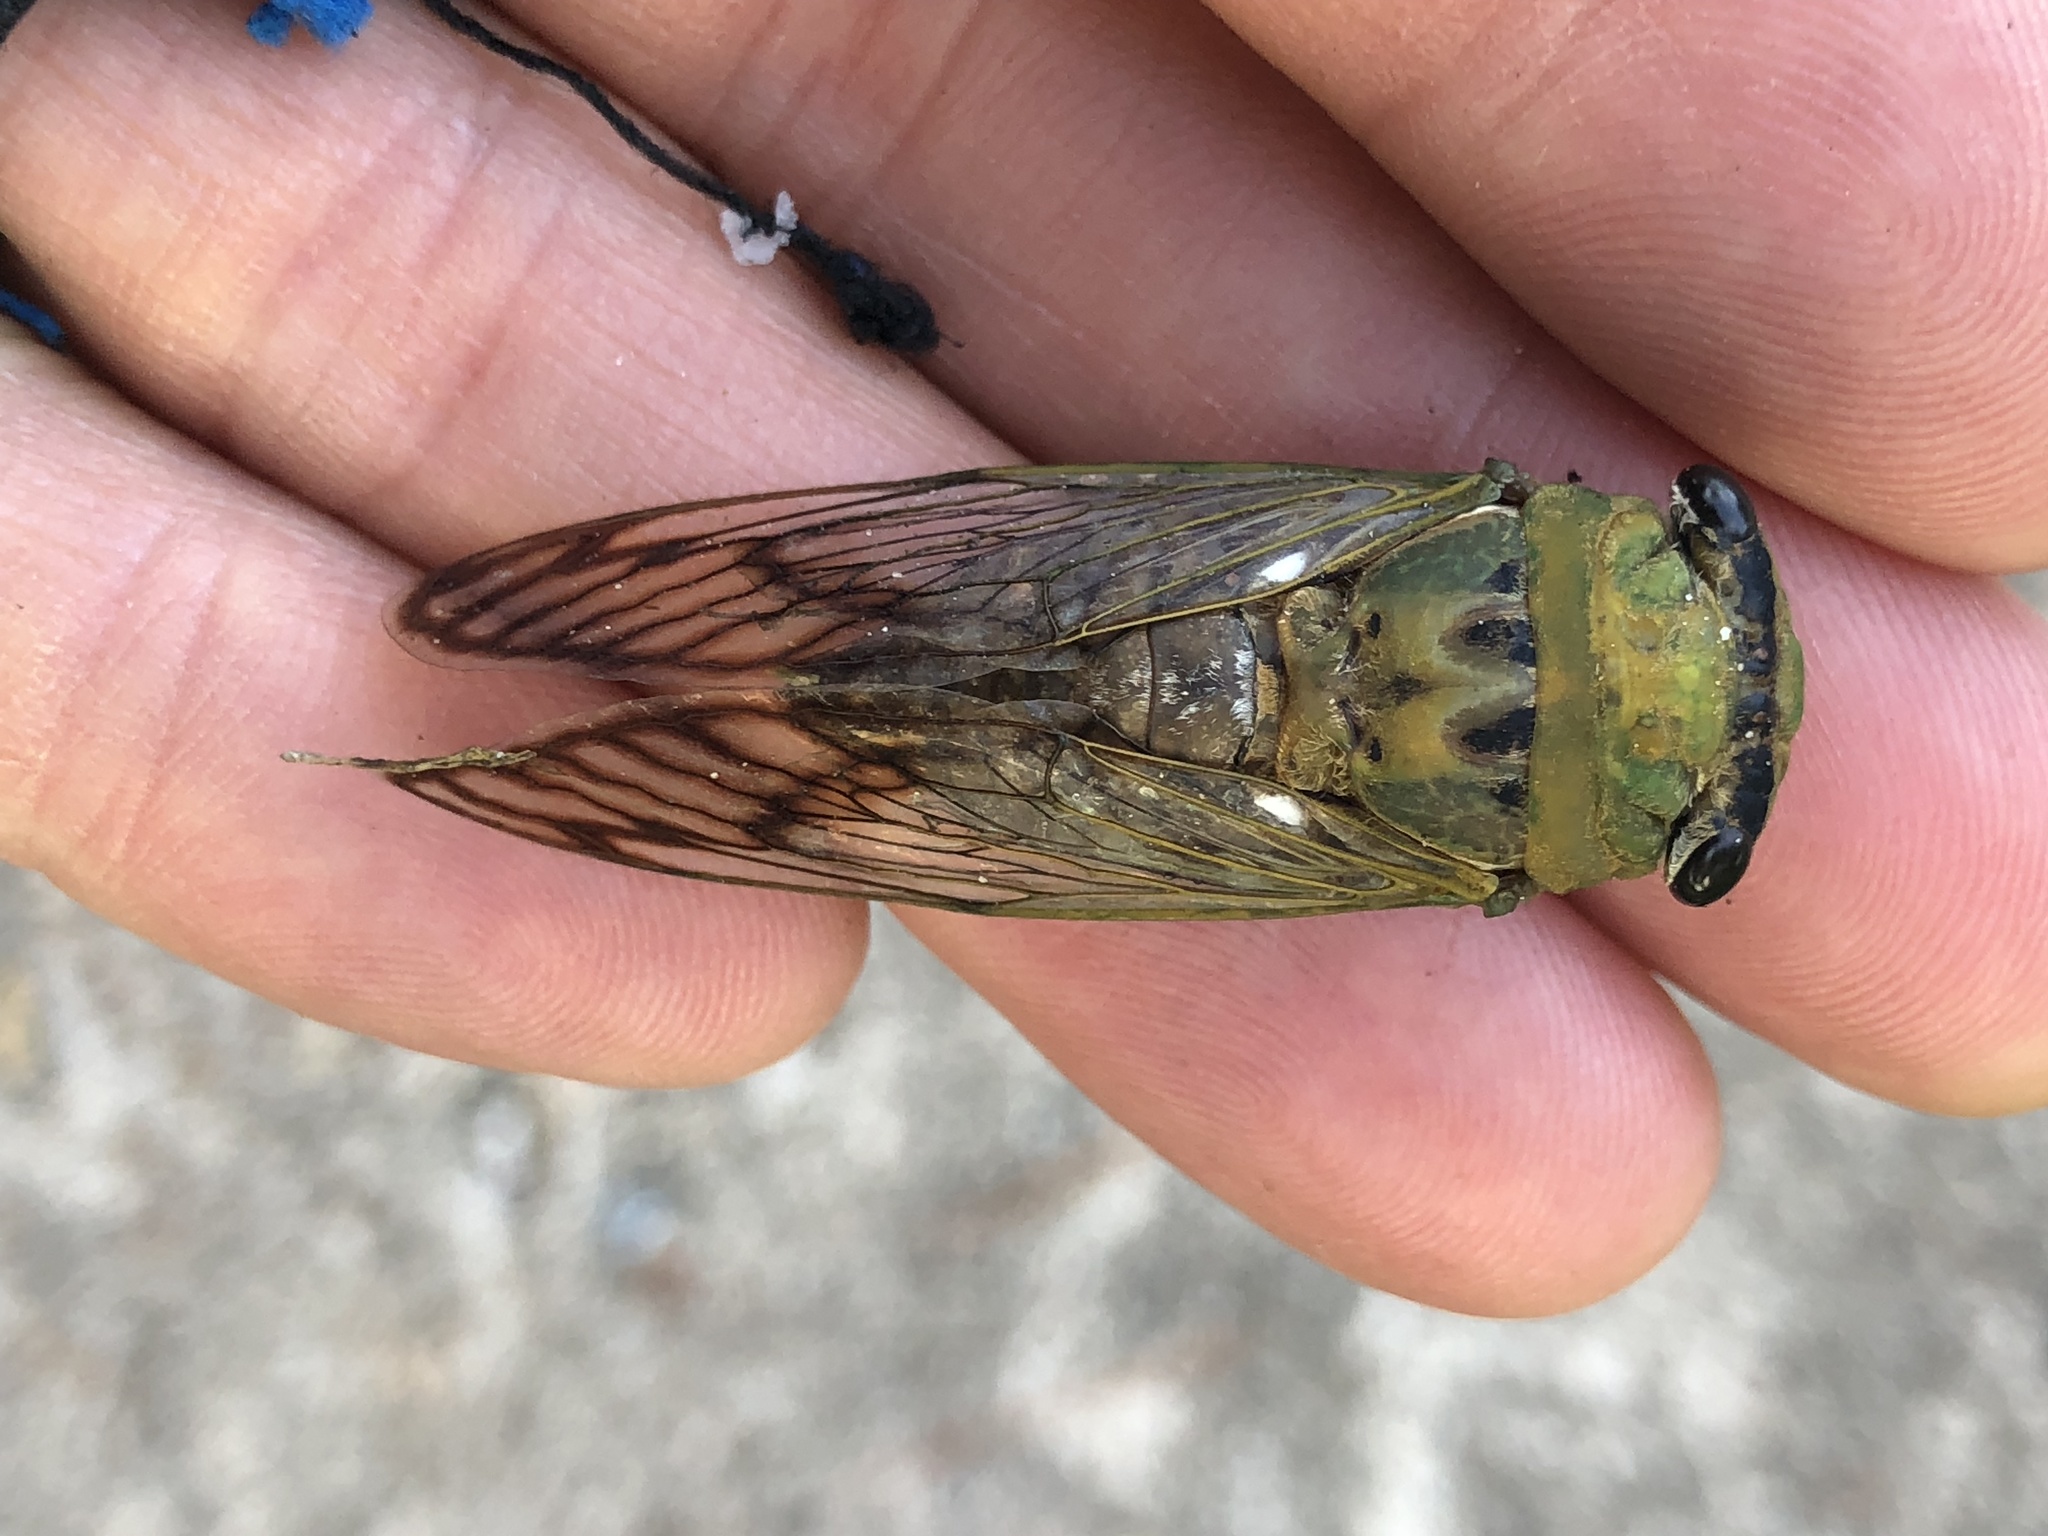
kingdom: Animalia
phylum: Arthropoda
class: Insecta
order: Hemiptera
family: Cicadidae
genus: Neotibicen
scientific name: Neotibicen superbus
